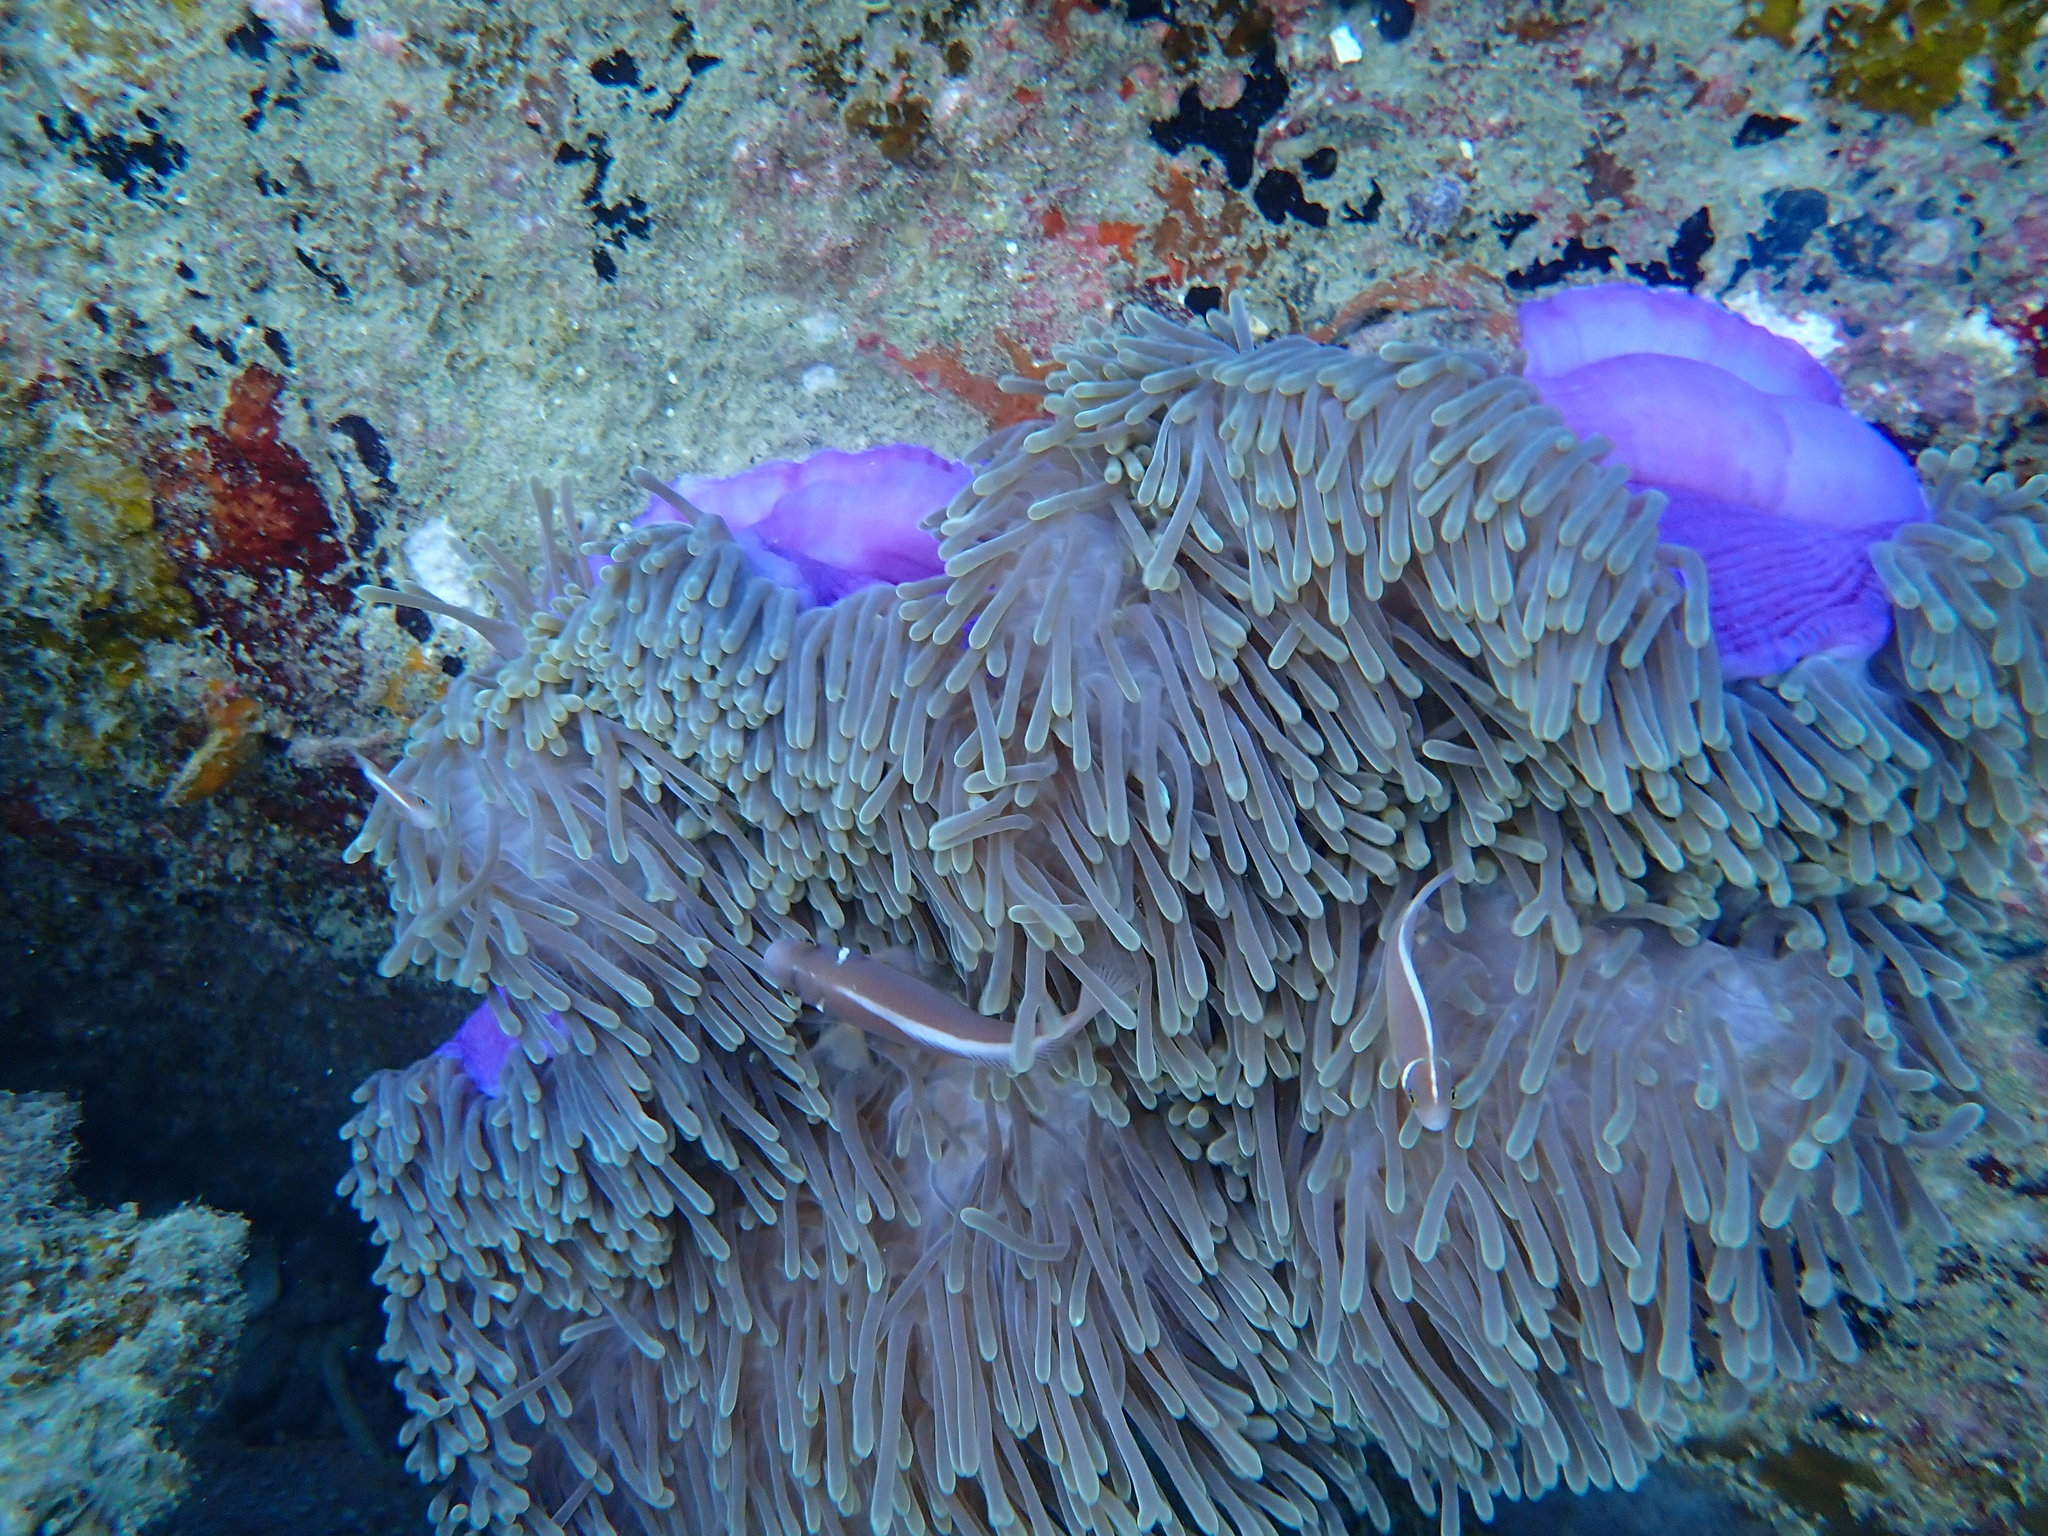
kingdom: Animalia
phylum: Chordata
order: Perciformes
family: Pomacentridae
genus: Amphiprion
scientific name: Amphiprion perideraion
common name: Pink anemonefish
